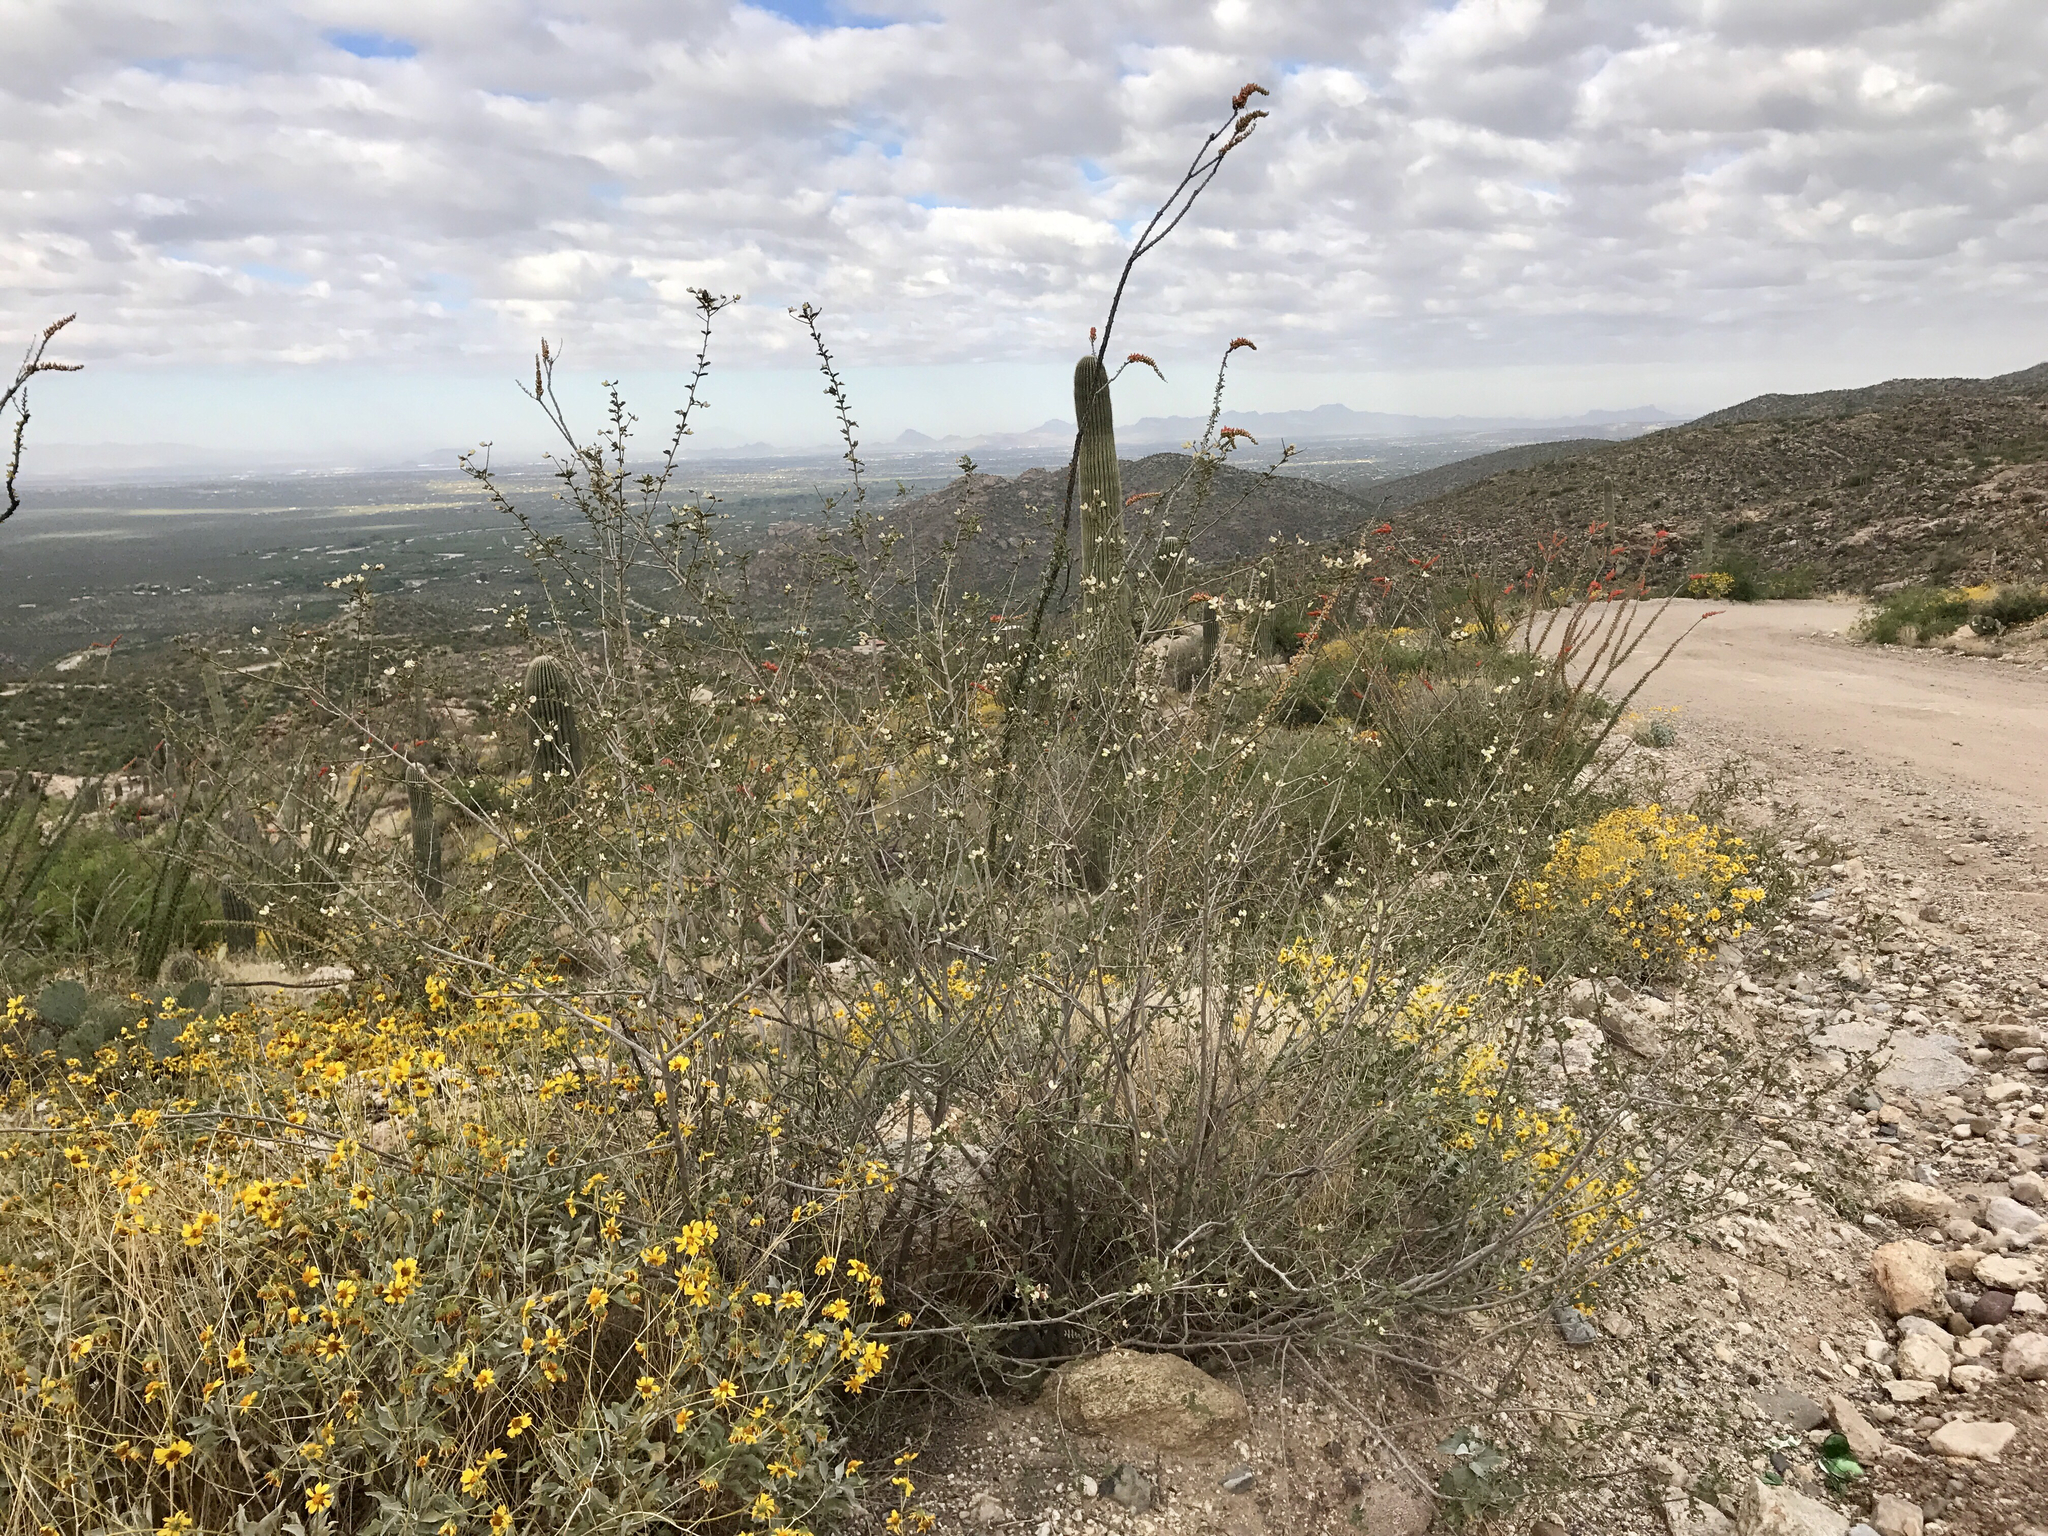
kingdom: Plantae
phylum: Tracheophyta
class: Magnoliopsida
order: Ericales
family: Fouquieriaceae
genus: Fouquieria
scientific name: Fouquieria splendens
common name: Vine-cactus
